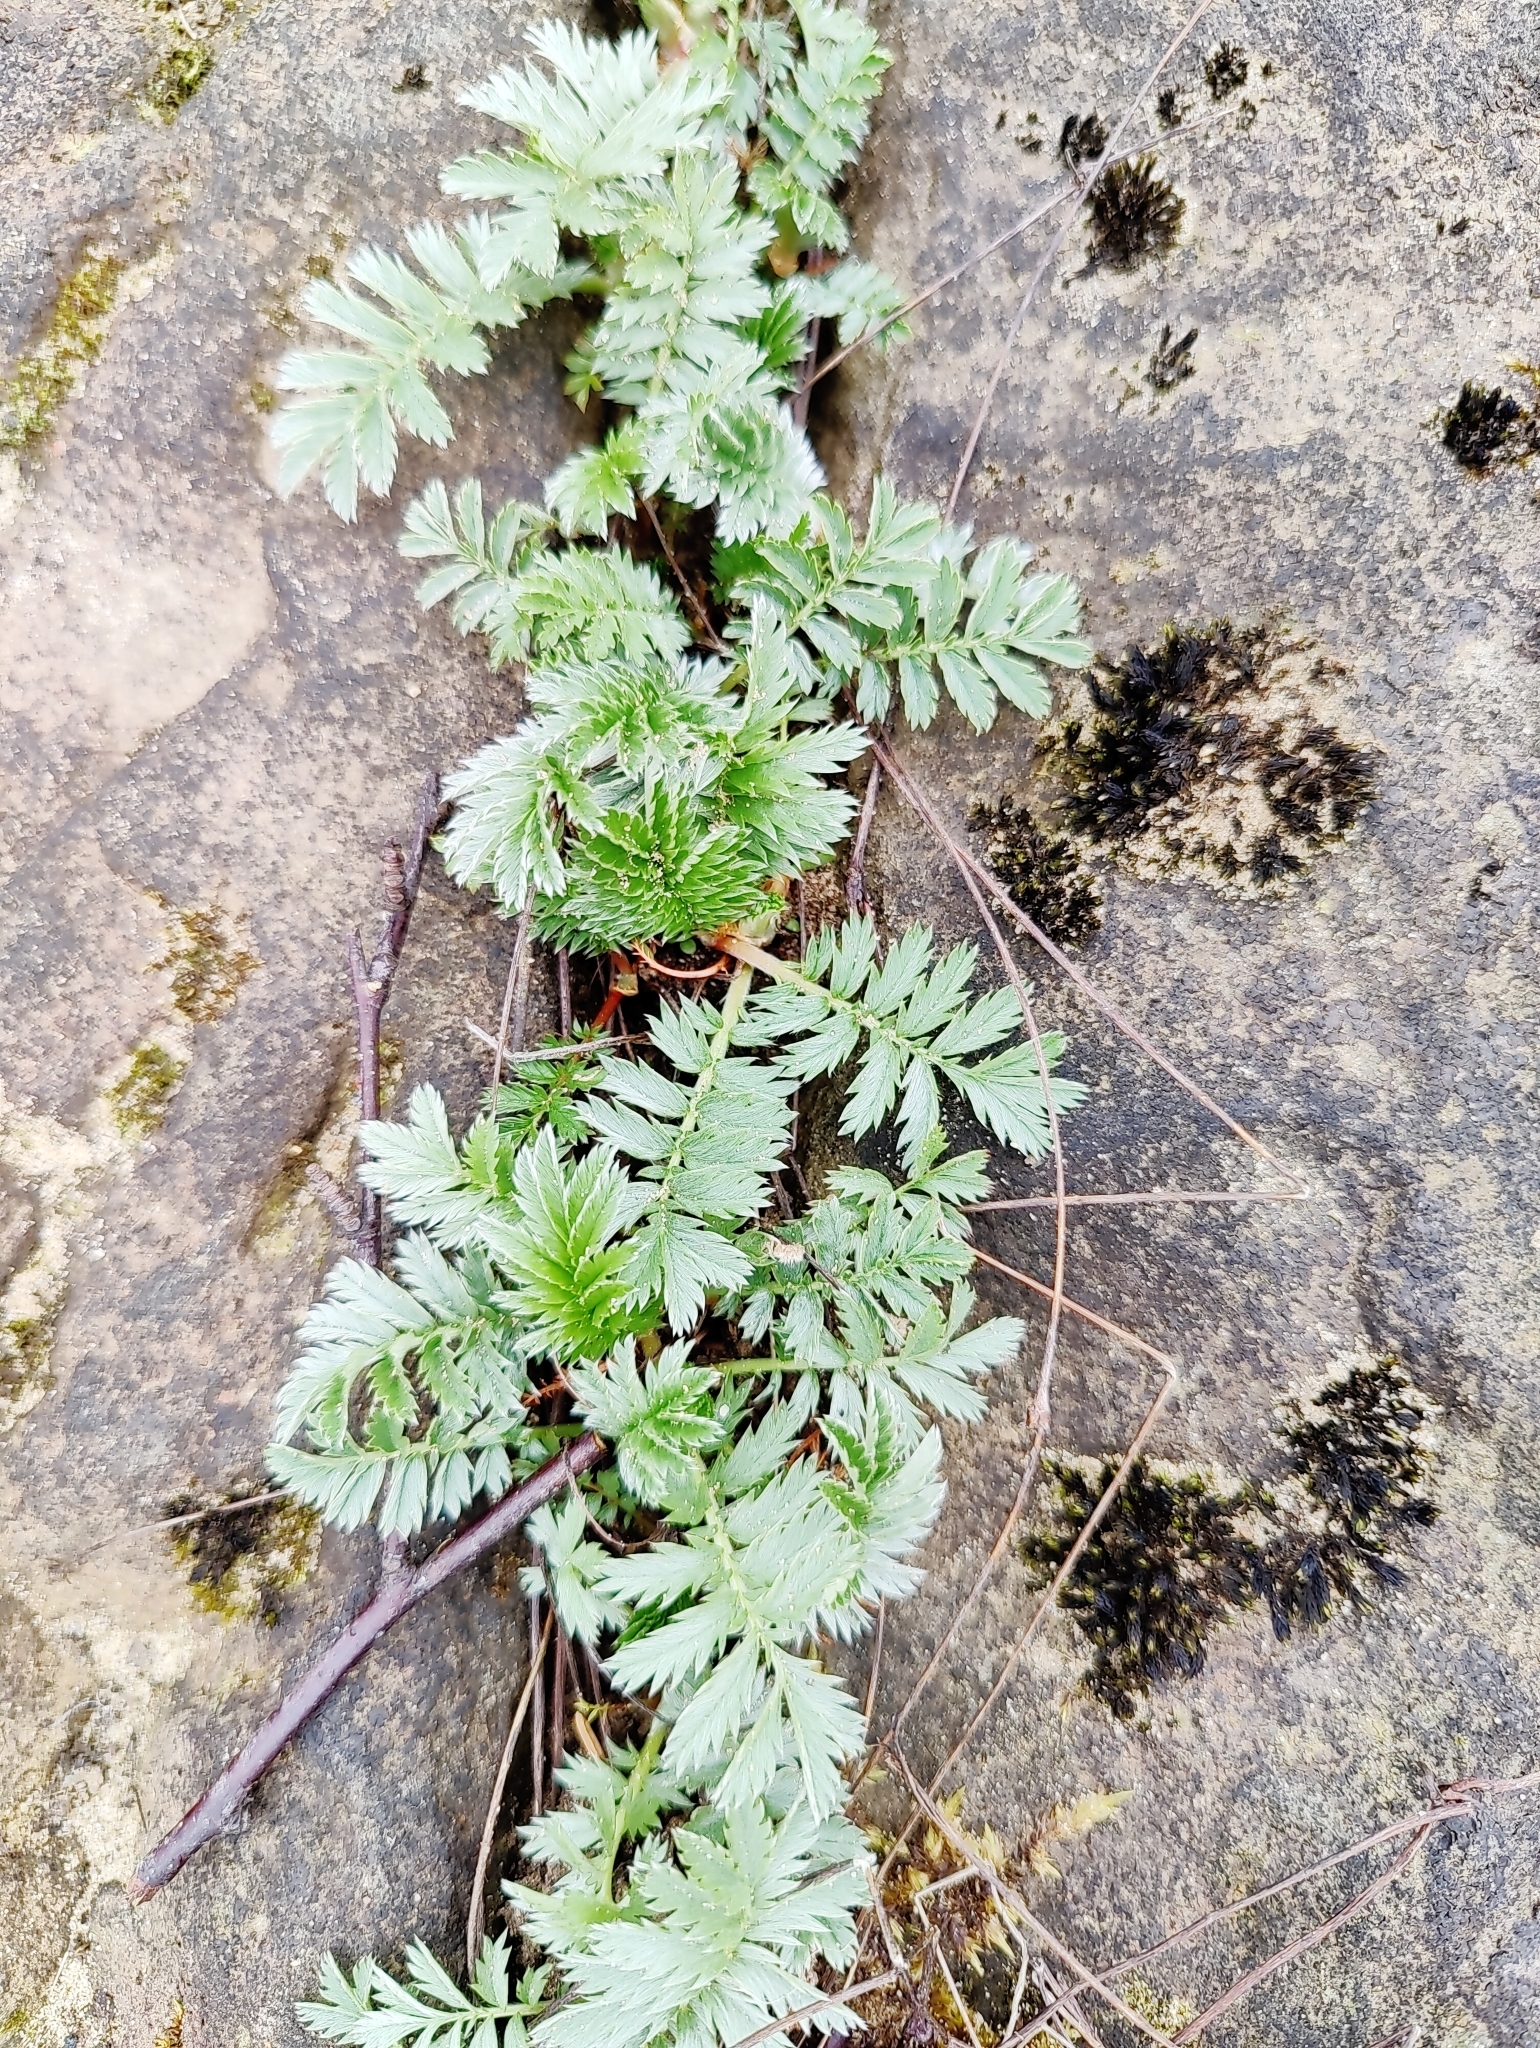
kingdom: Plantae
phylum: Tracheophyta
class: Magnoliopsida
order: Rosales
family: Rosaceae
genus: Argentina
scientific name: Argentina anserina
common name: Common silverweed
